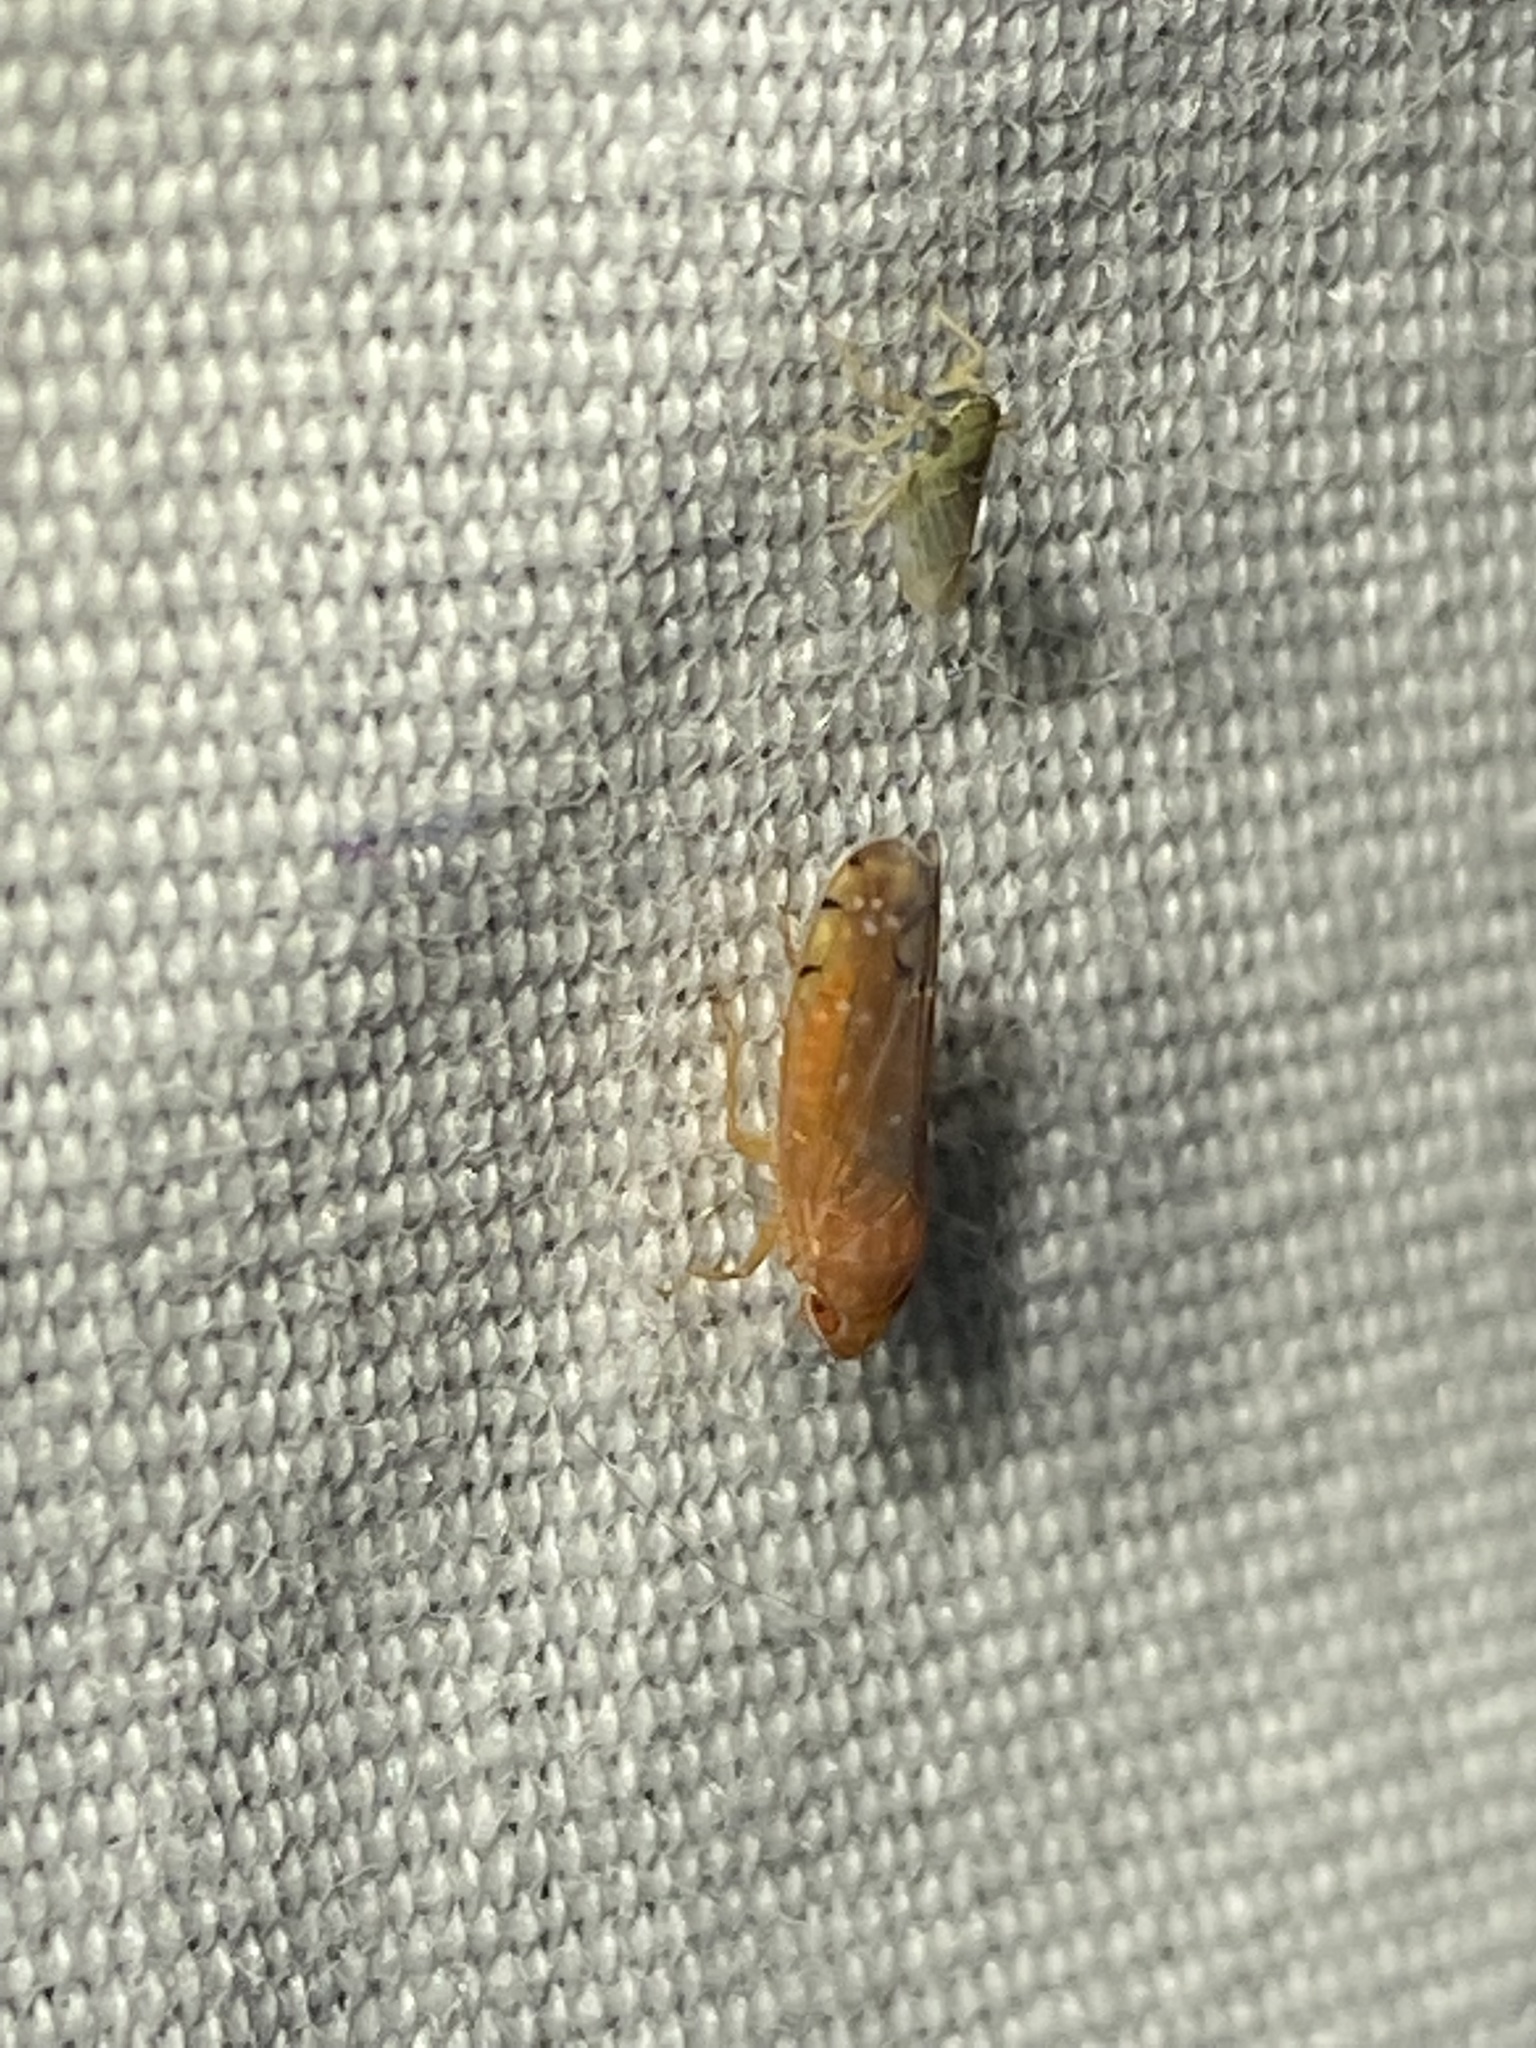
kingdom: Animalia
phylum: Arthropoda
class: Insecta
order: Hemiptera
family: Cicadellidae
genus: Cantura
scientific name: Cantura jucunda
